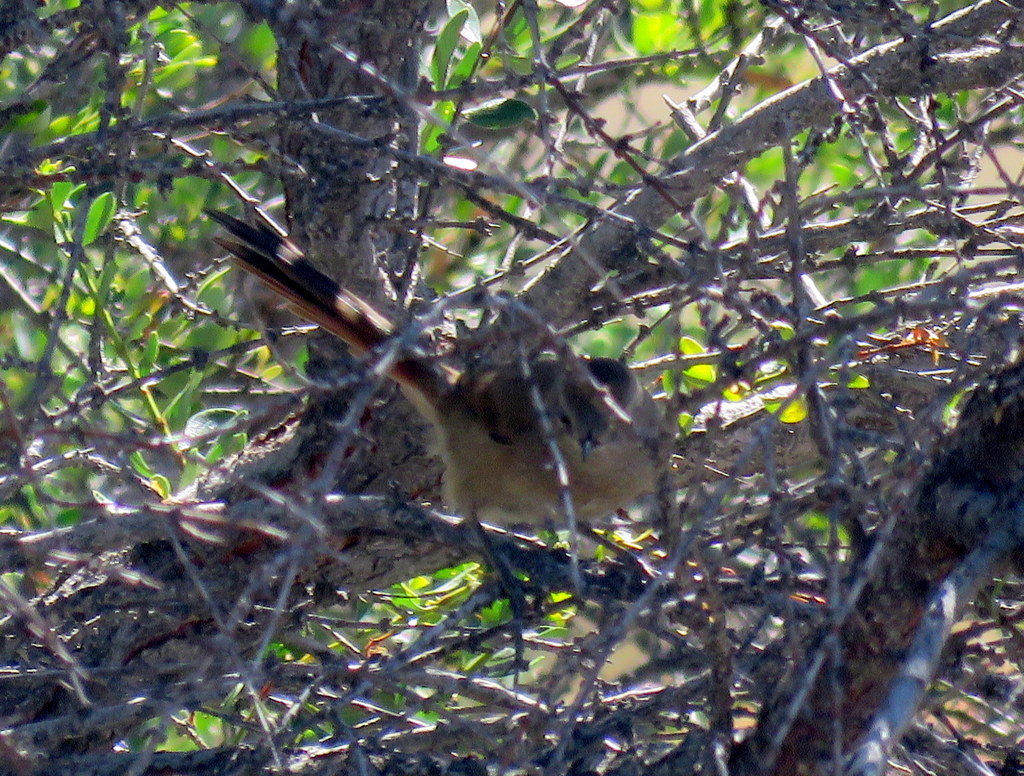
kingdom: Animalia
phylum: Chordata
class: Aves
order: Passeriformes
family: Furnariidae
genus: Asthenes
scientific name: Asthenes pyrrholeuca
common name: Sharp-billed canastero
